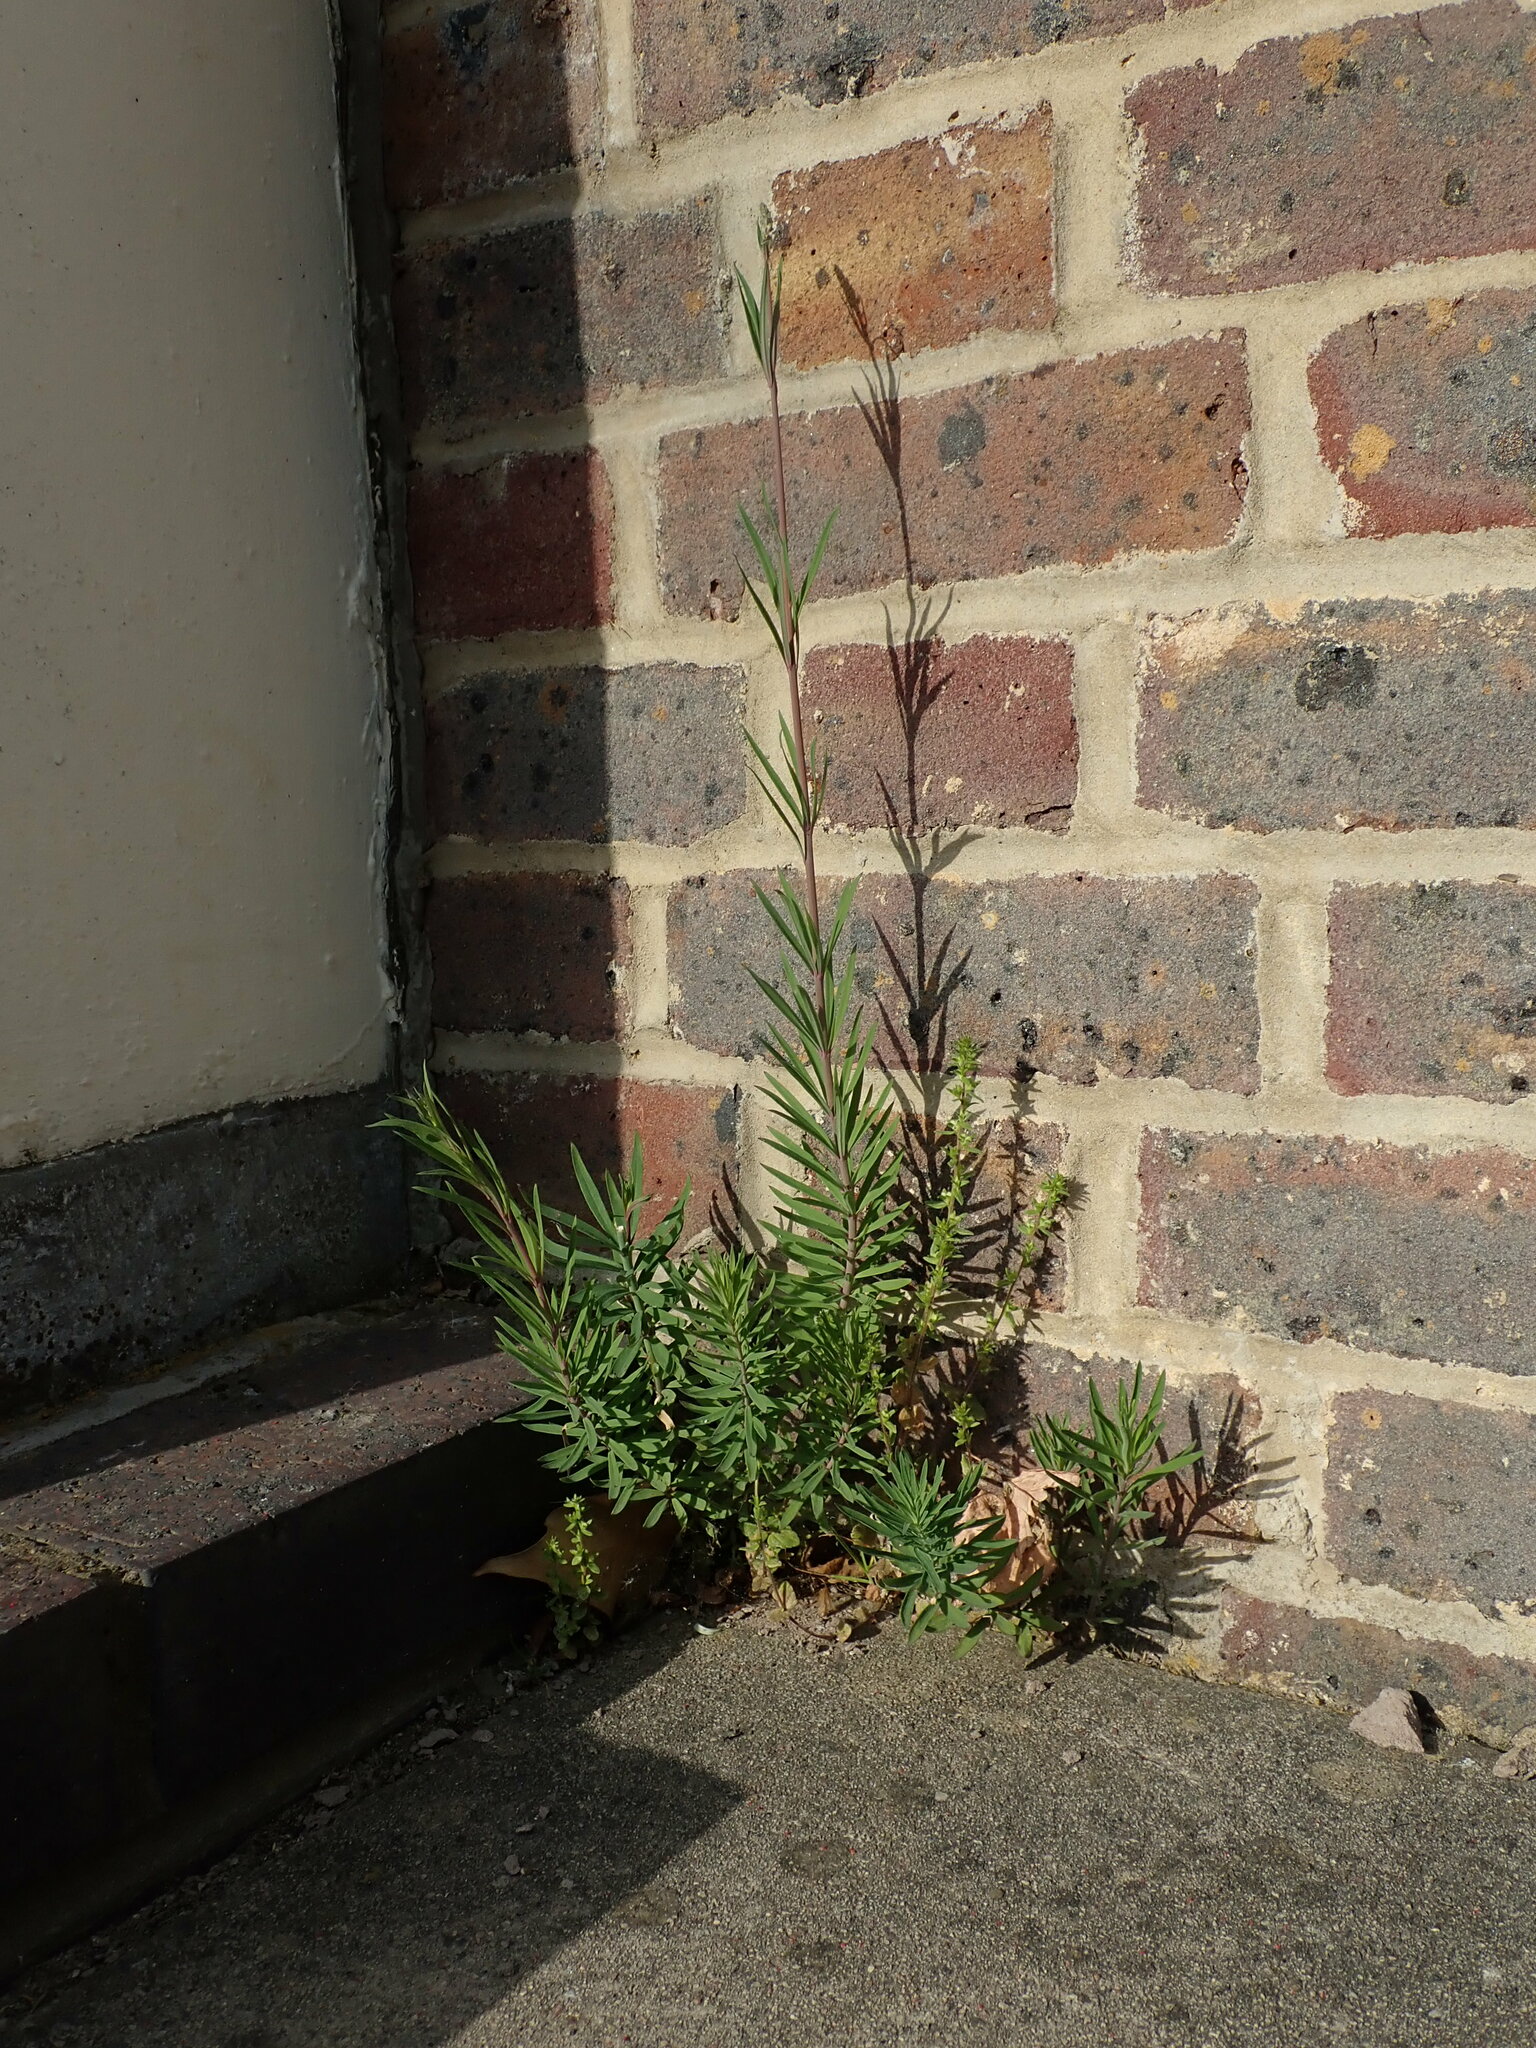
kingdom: Plantae
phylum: Tracheophyta
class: Magnoliopsida
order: Lamiales
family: Plantaginaceae
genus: Linaria
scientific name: Linaria purpurea
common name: Purple toadflax
